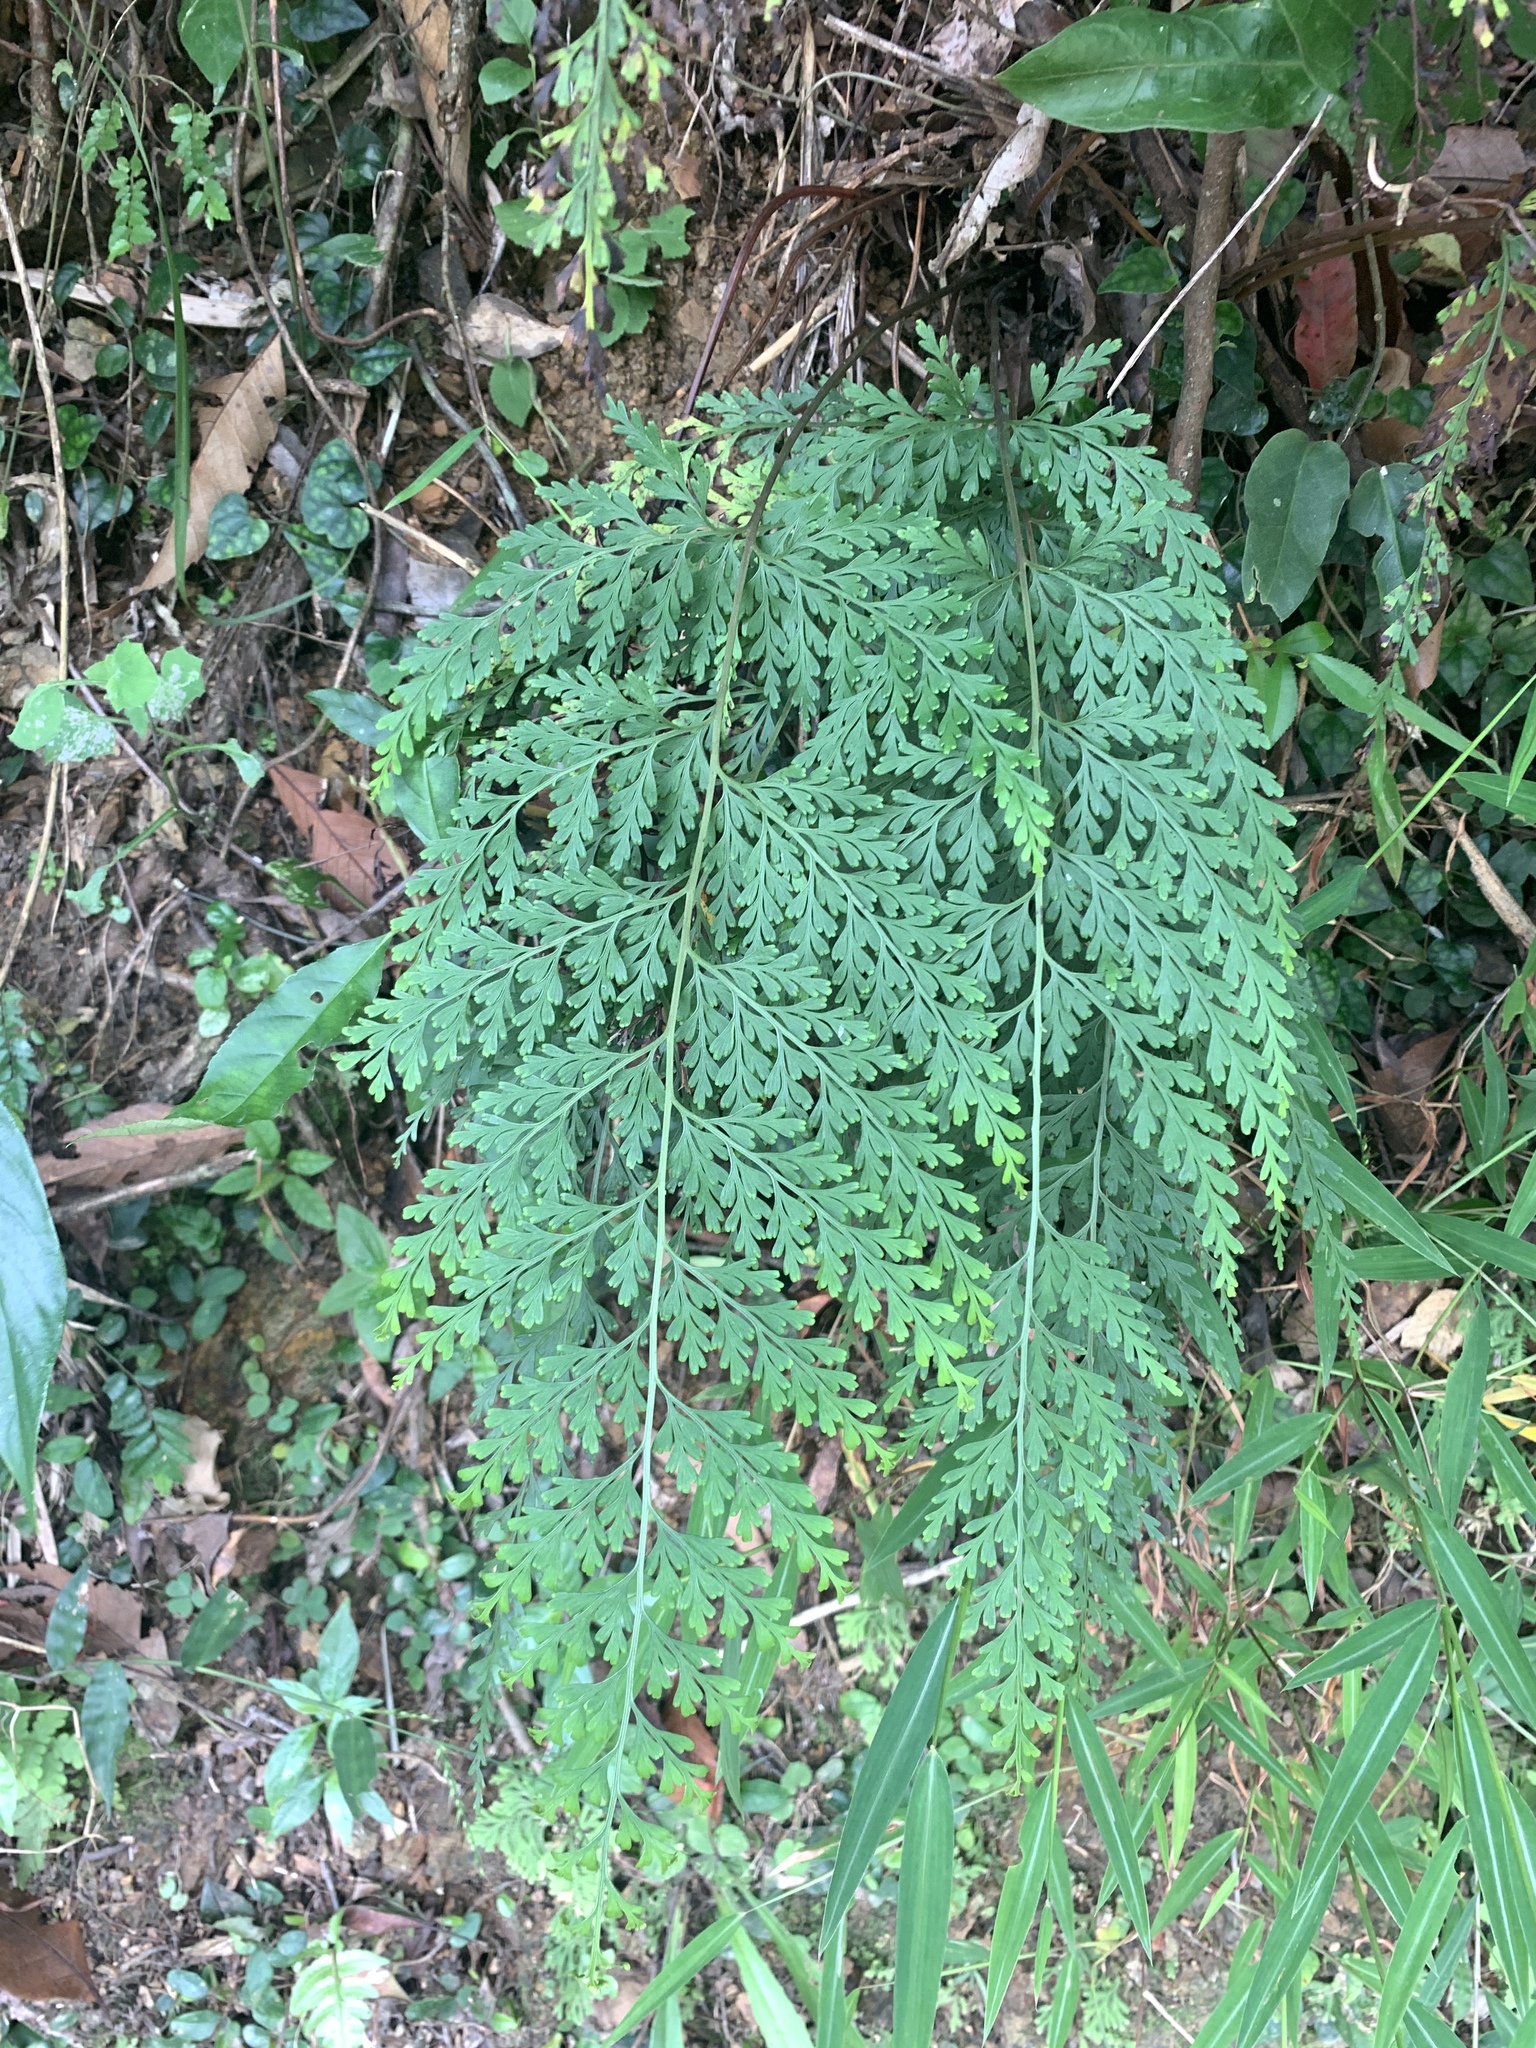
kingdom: Plantae
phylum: Tracheophyta
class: Polypodiopsida
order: Polypodiales
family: Lindsaeaceae
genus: Odontosoria
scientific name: Odontosoria chinensis
